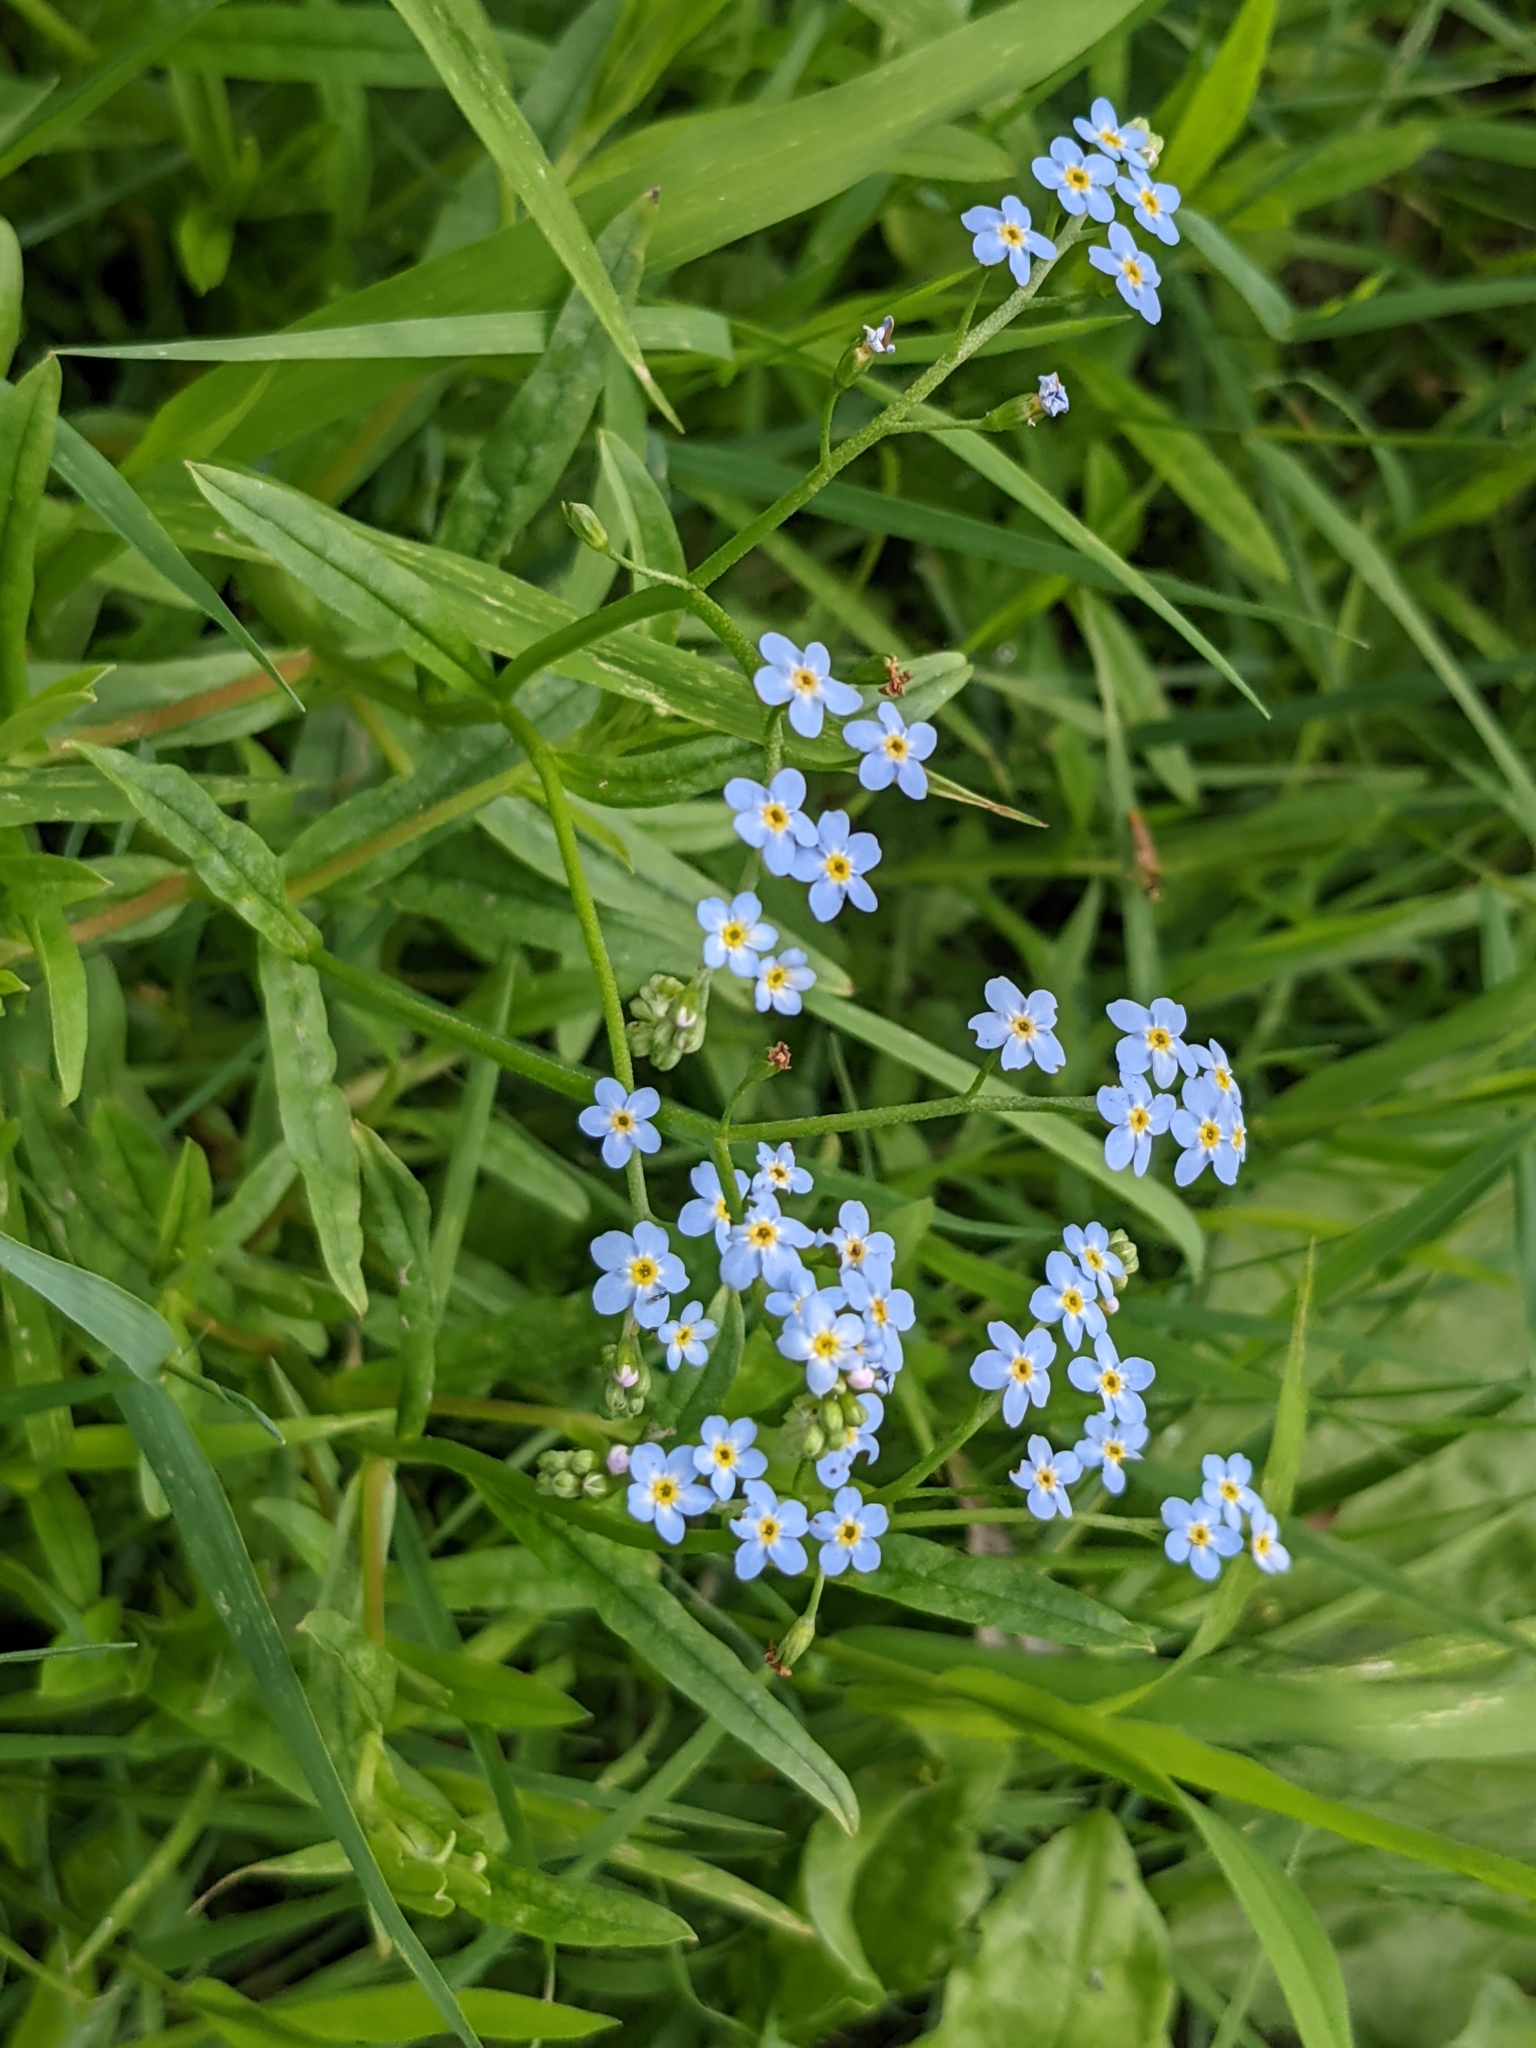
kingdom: Plantae
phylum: Tracheophyta
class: Magnoliopsida
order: Boraginales
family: Boraginaceae
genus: Myosotis
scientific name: Myosotis scorpioides
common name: Water forget-me-not
